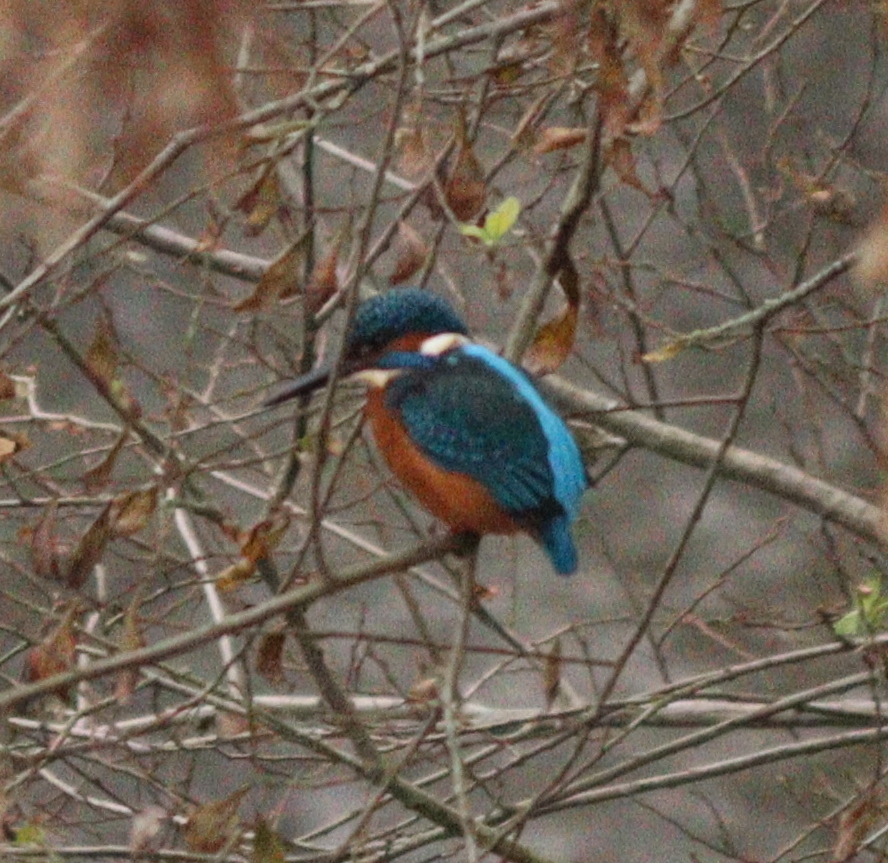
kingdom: Animalia
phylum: Chordata
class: Aves
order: Coraciiformes
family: Alcedinidae
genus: Alcedo
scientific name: Alcedo atthis
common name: Common kingfisher
